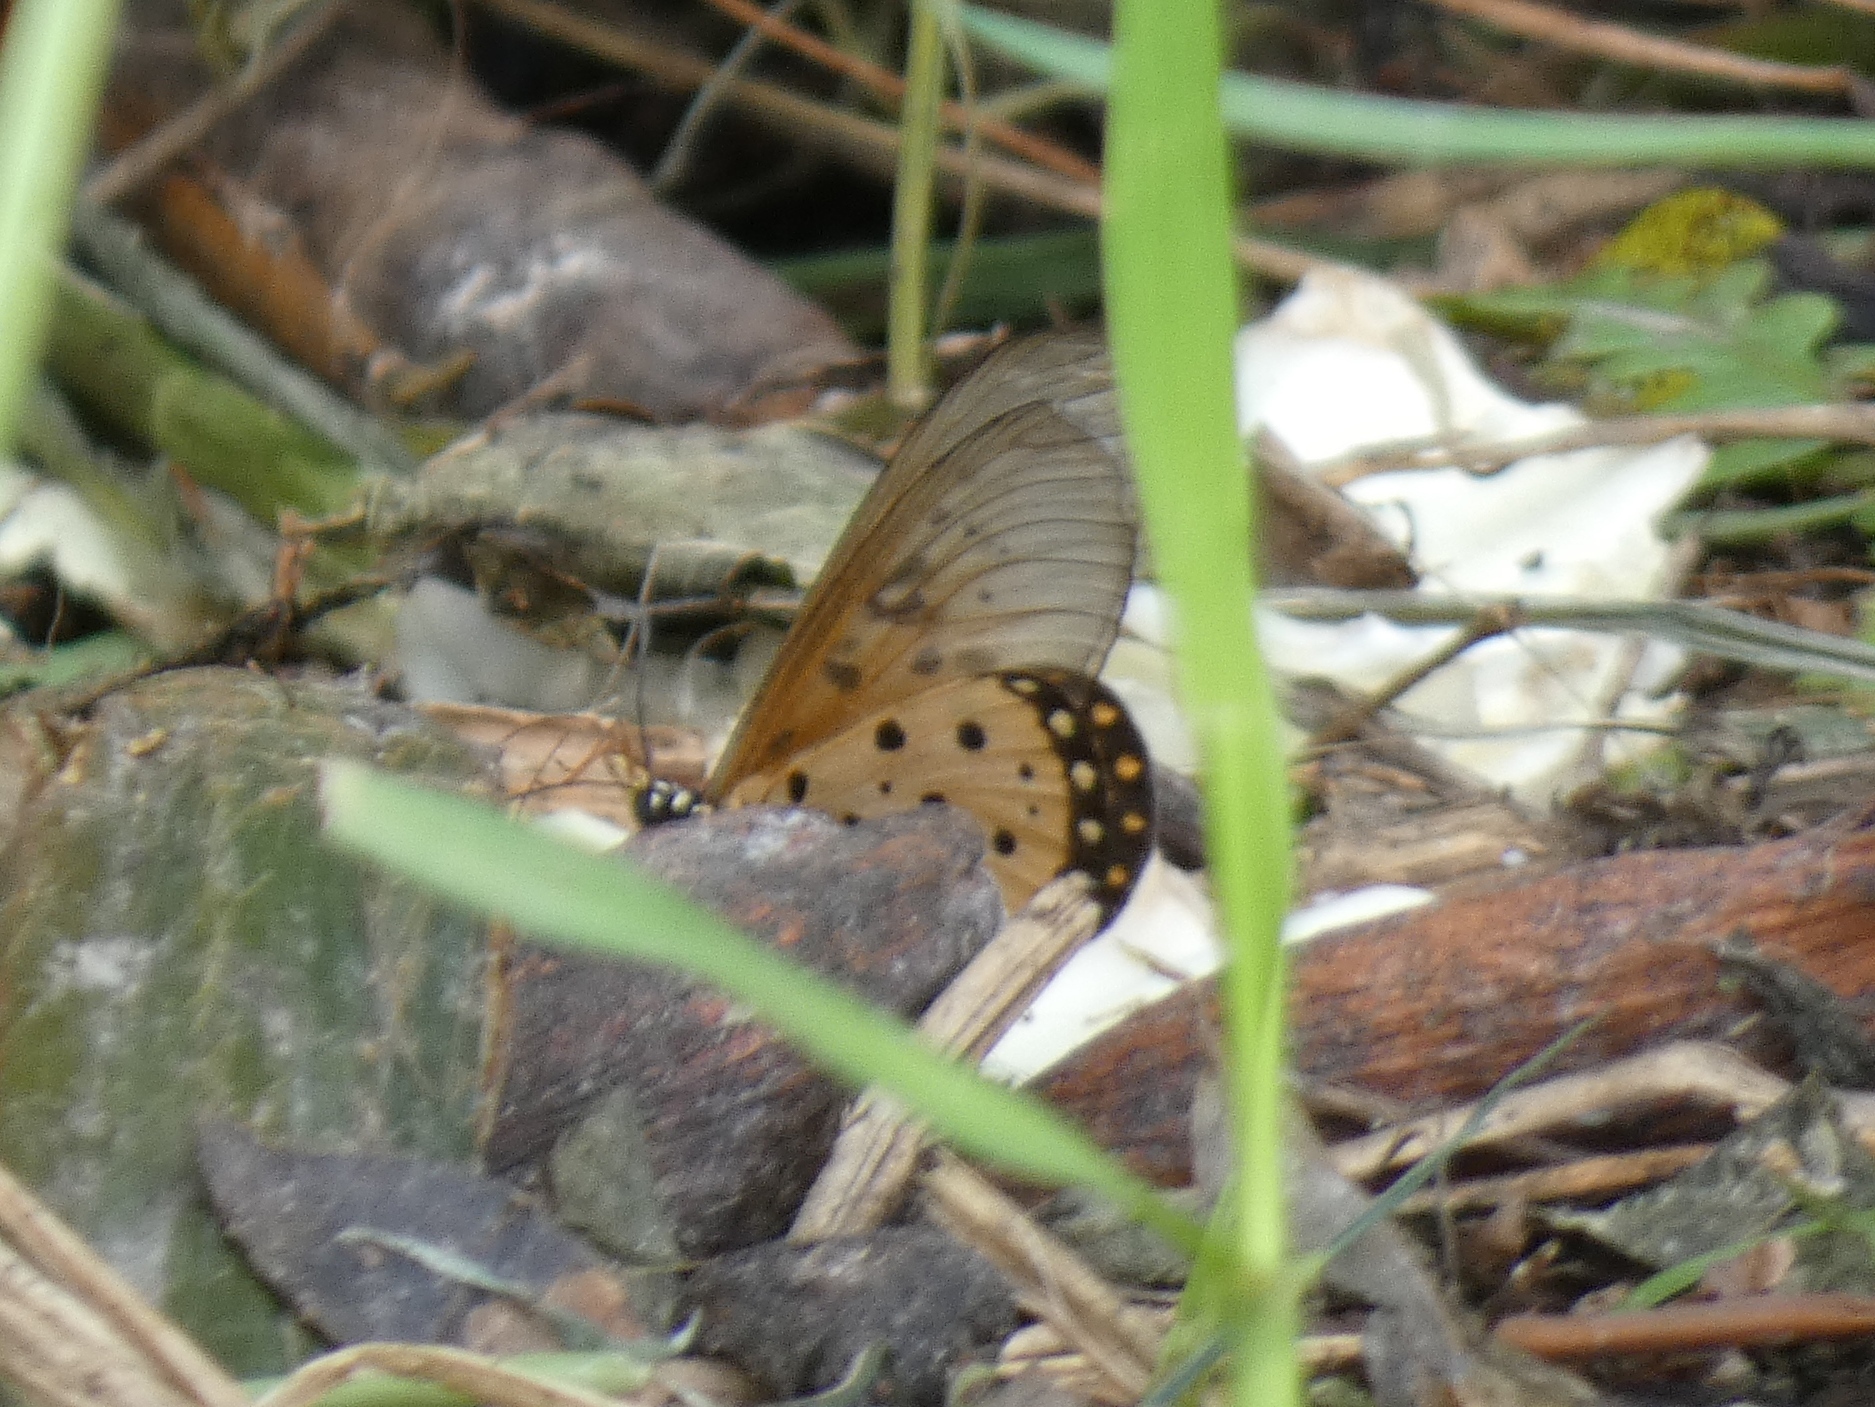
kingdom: Animalia
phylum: Arthropoda
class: Insecta
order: Lepidoptera
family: Nymphalidae
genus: Acraea
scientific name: Acraea neobule
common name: Dancing acraea
